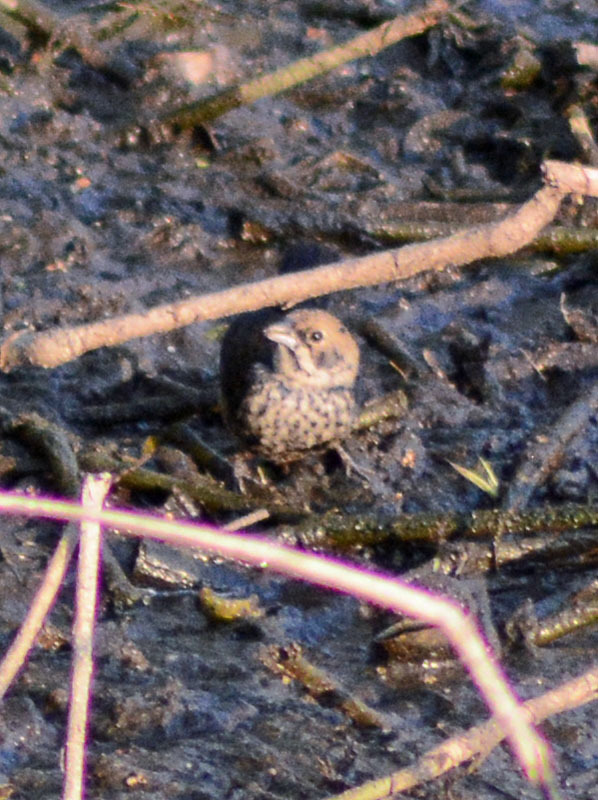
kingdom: Animalia
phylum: Chordata
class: Aves
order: Passeriformes
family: Thraupidae
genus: Volatinia
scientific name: Volatinia jacarina
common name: Blue-black grassquit
